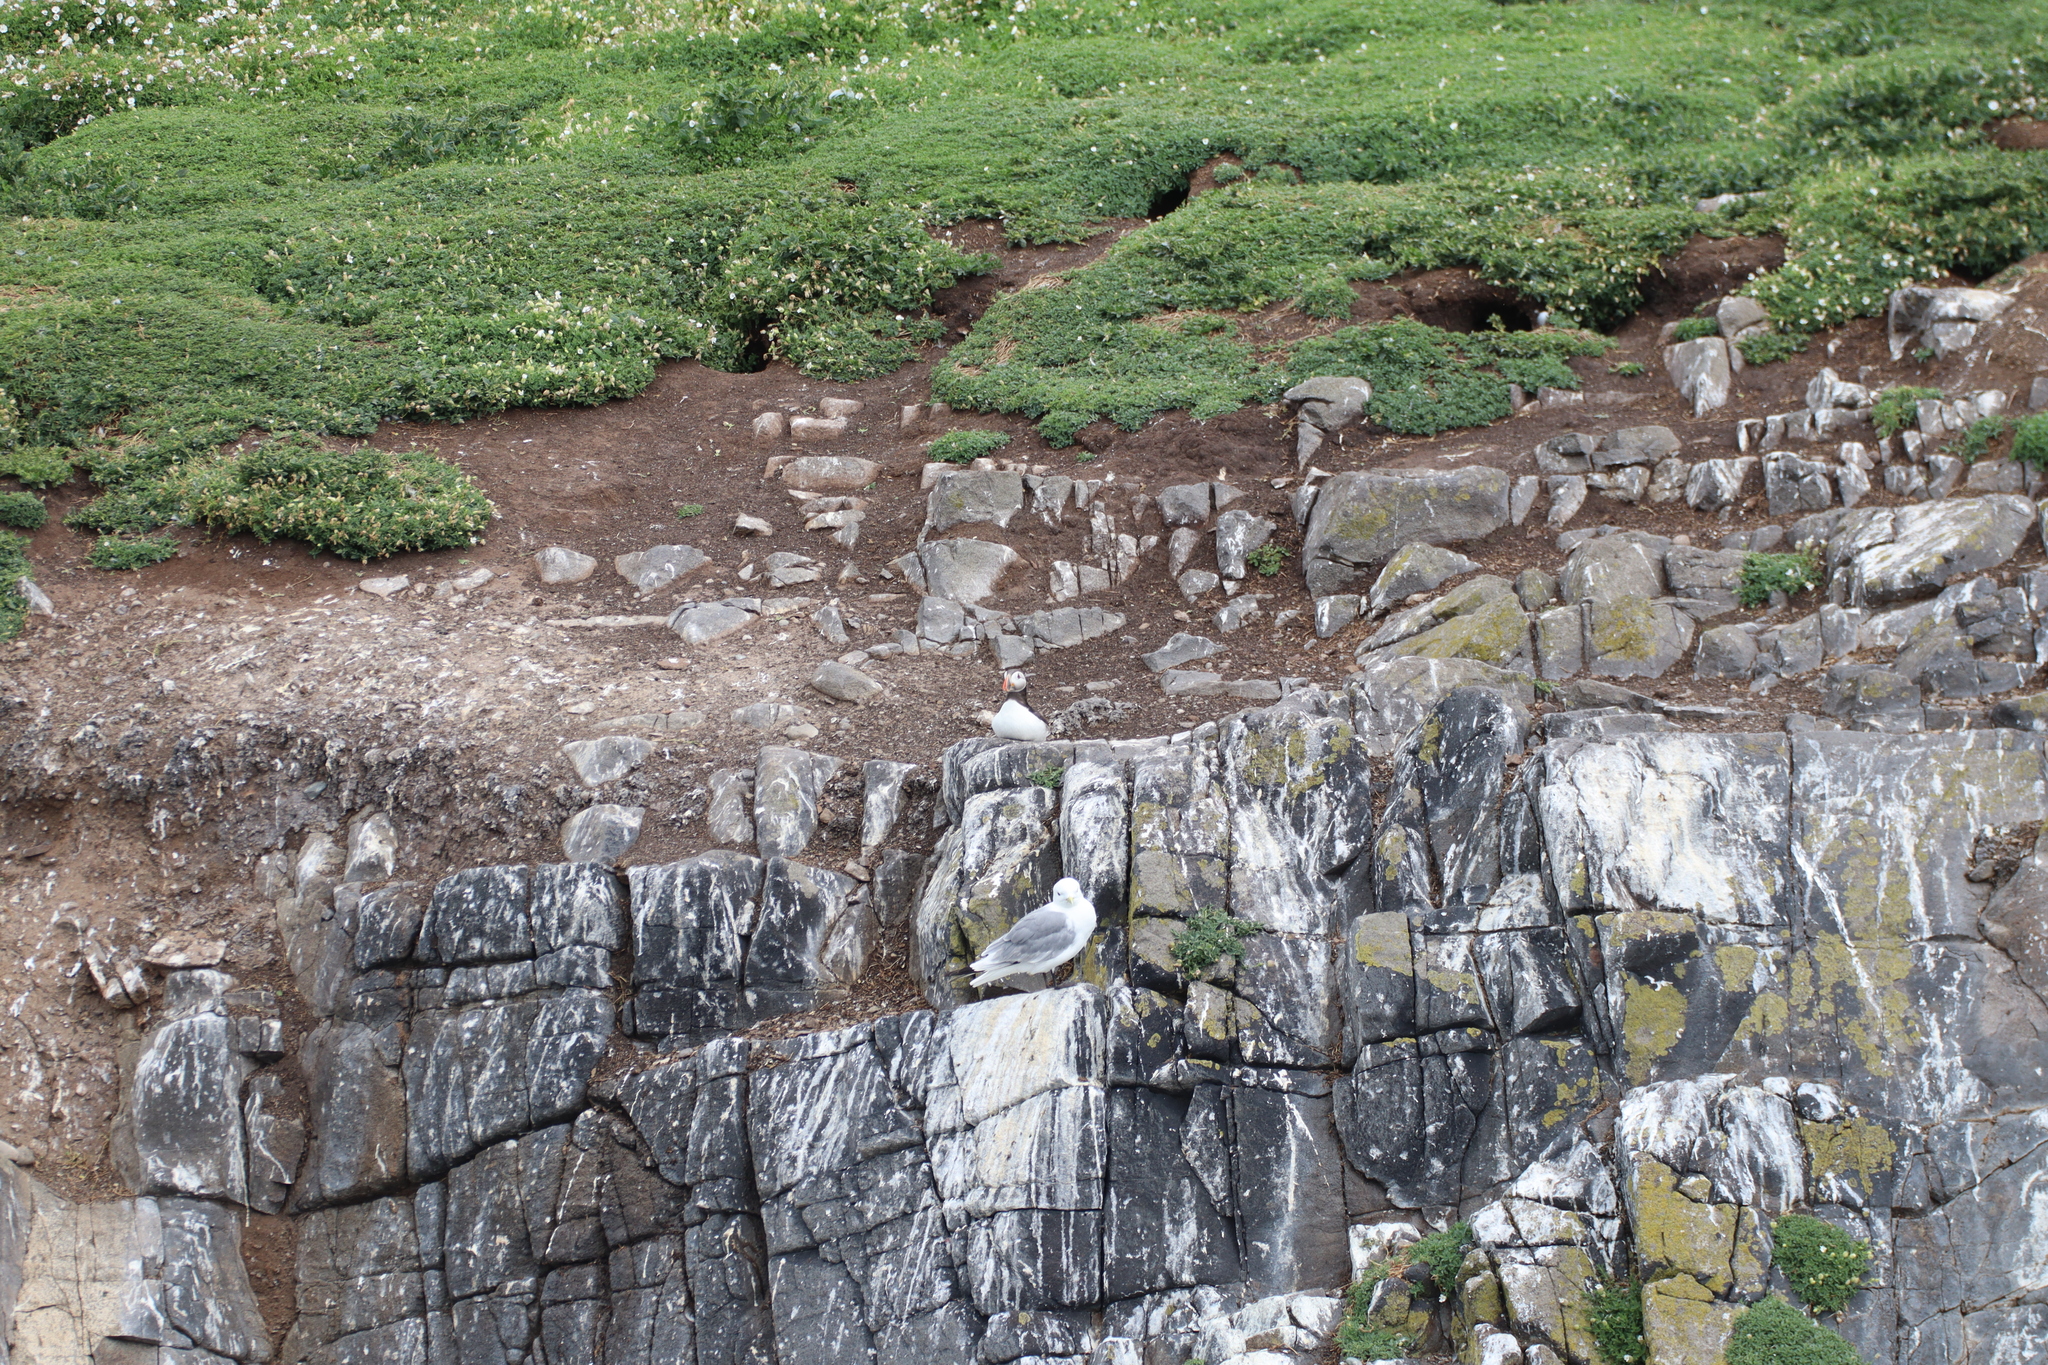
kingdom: Animalia
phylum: Chordata
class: Aves
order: Charadriiformes
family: Alcidae
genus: Fratercula
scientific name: Fratercula arctica
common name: Atlantic puffin
